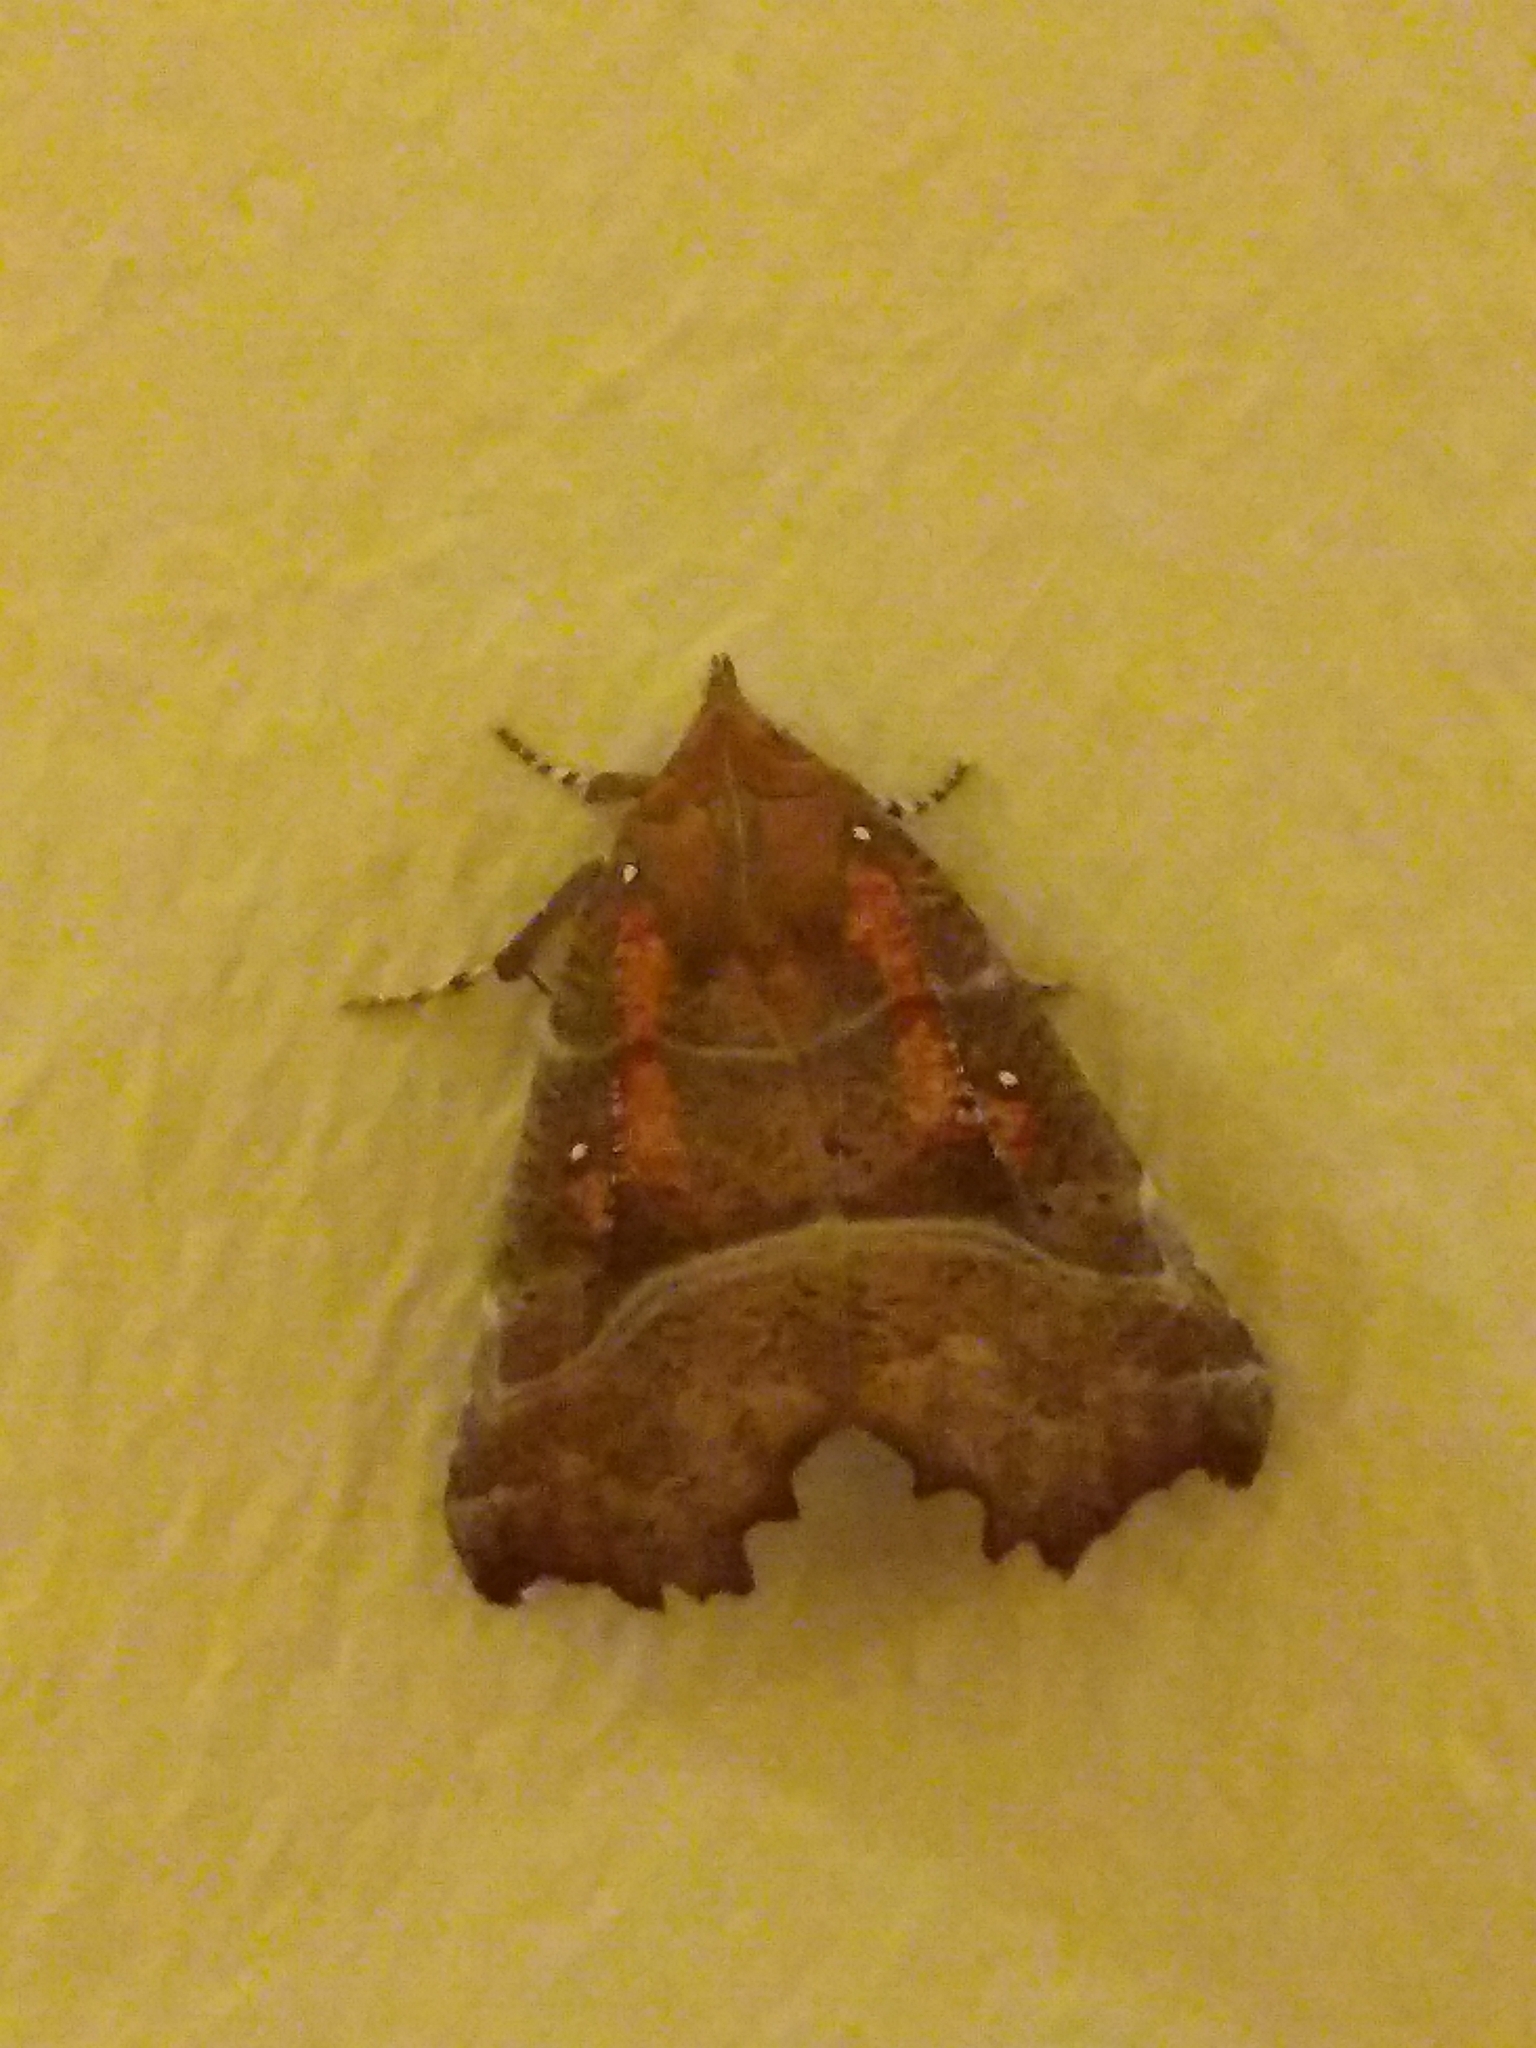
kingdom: Animalia
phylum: Arthropoda
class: Insecta
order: Lepidoptera
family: Erebidae
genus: Scoliopteryx
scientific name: Scoliopteryx libatrix
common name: Herald
